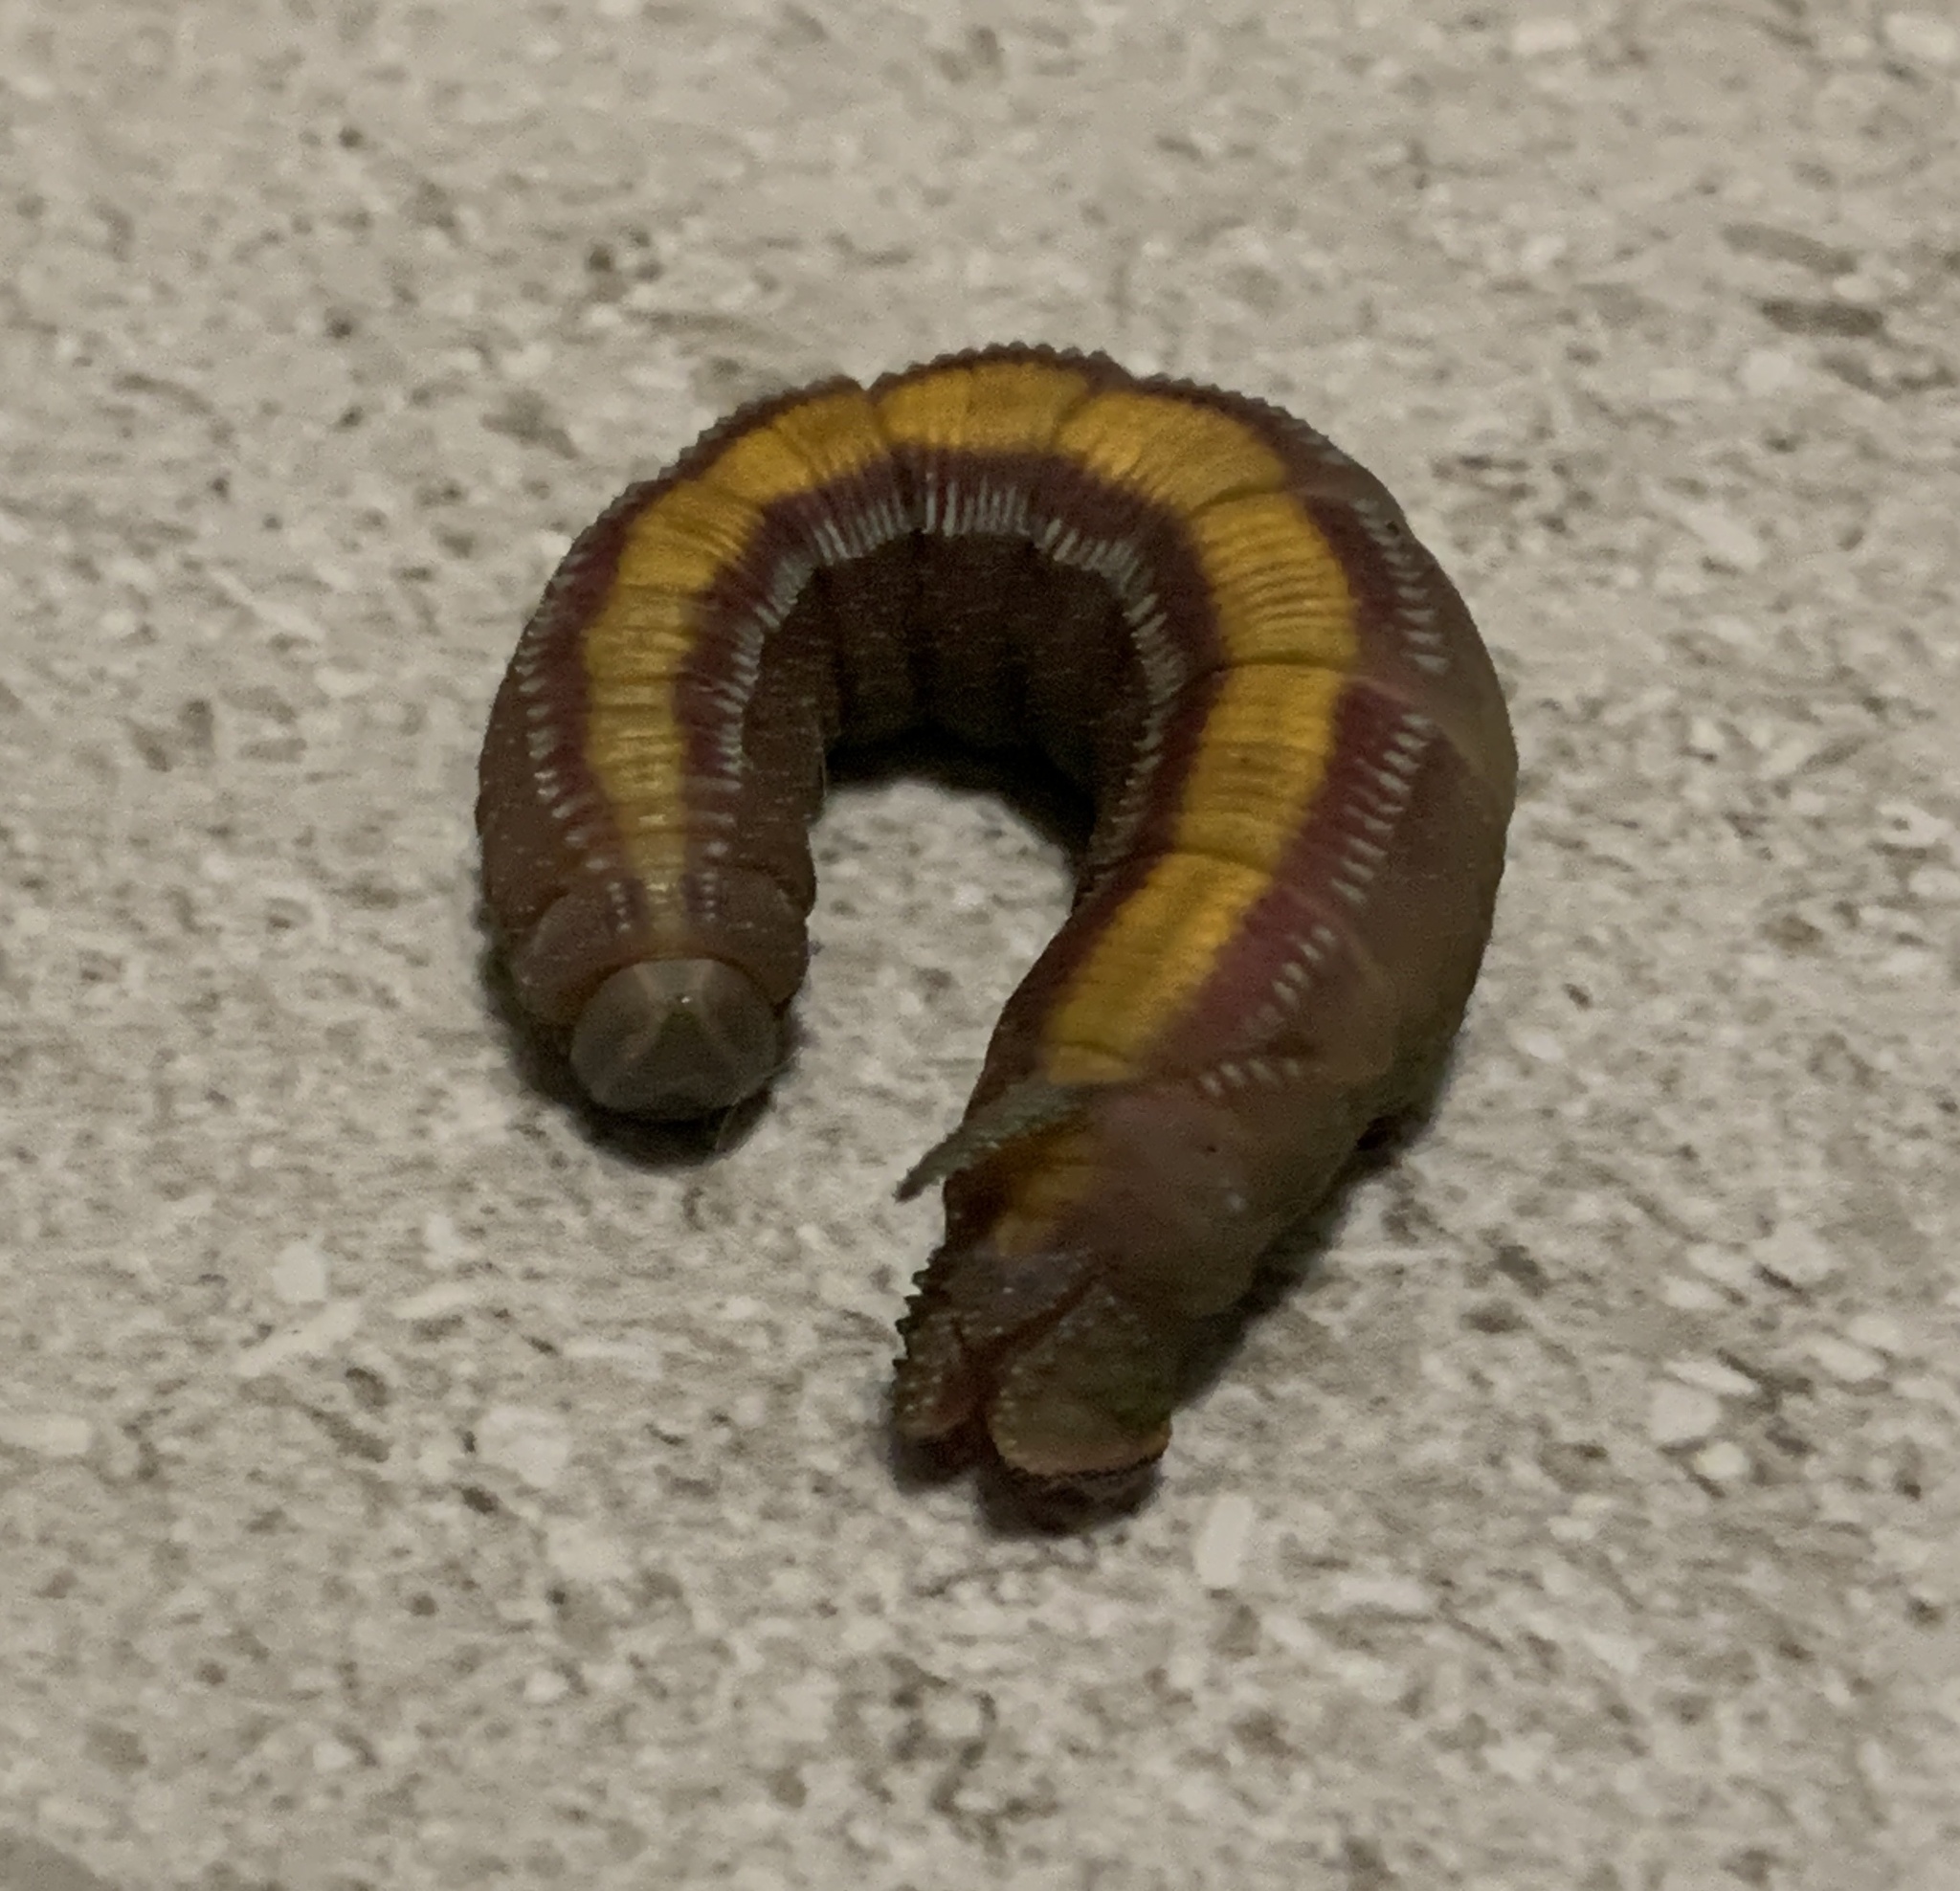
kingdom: Animalia
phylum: Arthropoda
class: Insecta
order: Lepidoptera
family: Sphingidae
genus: Pseudoclanis
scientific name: Pseudoclanis postica
